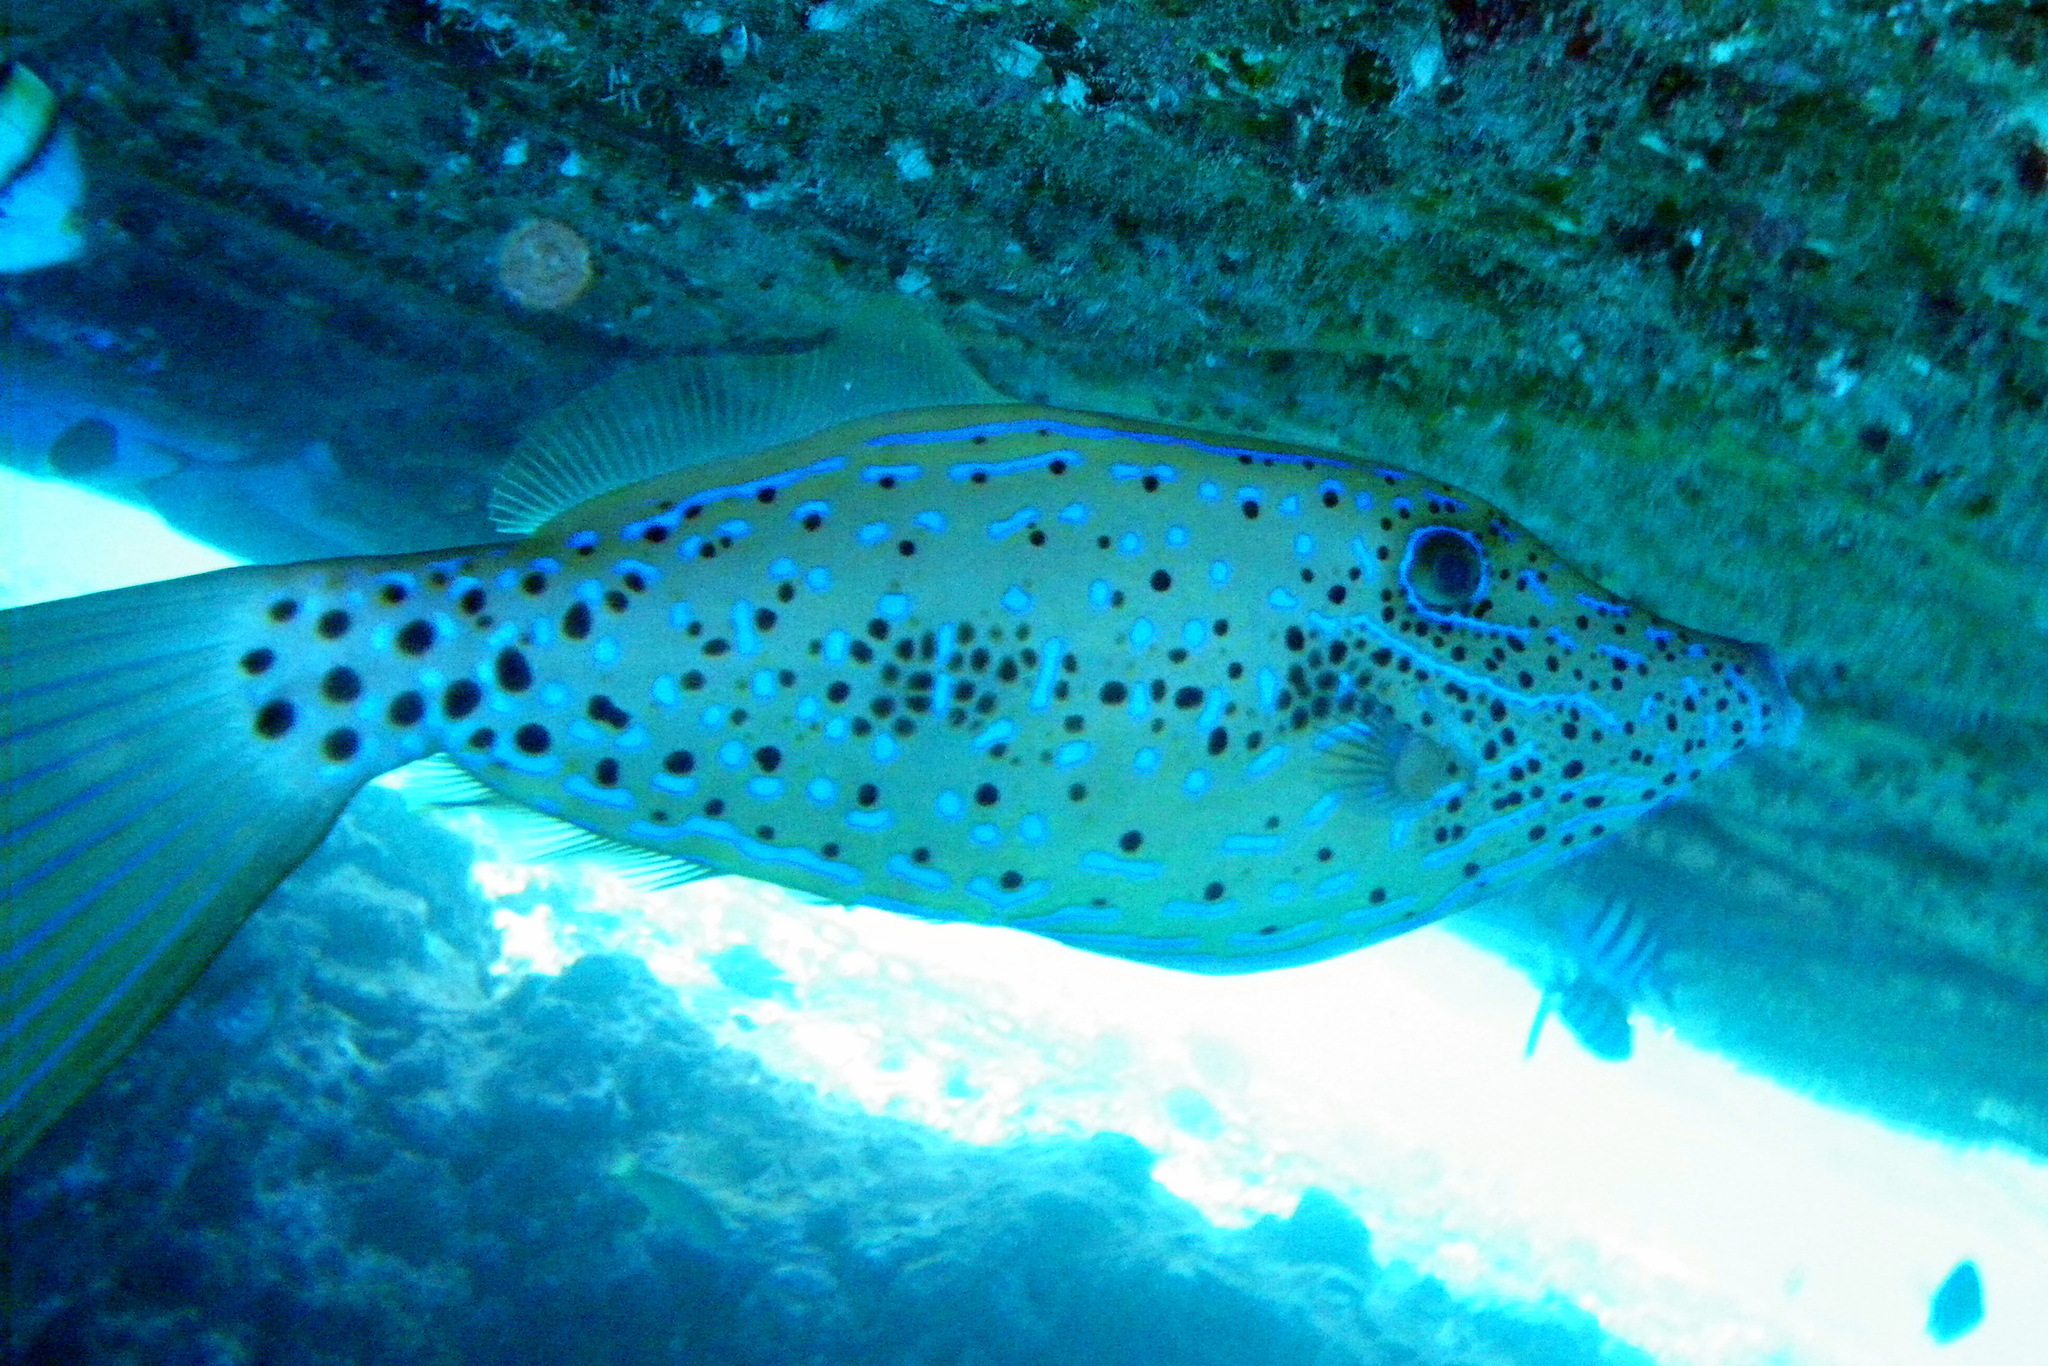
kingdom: Animalia
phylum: Chordata
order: Tetraodontiformes
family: Monacanthidae
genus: Aluterus
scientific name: Aluterus scriptus
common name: Scribbled leatherjacket filefish
